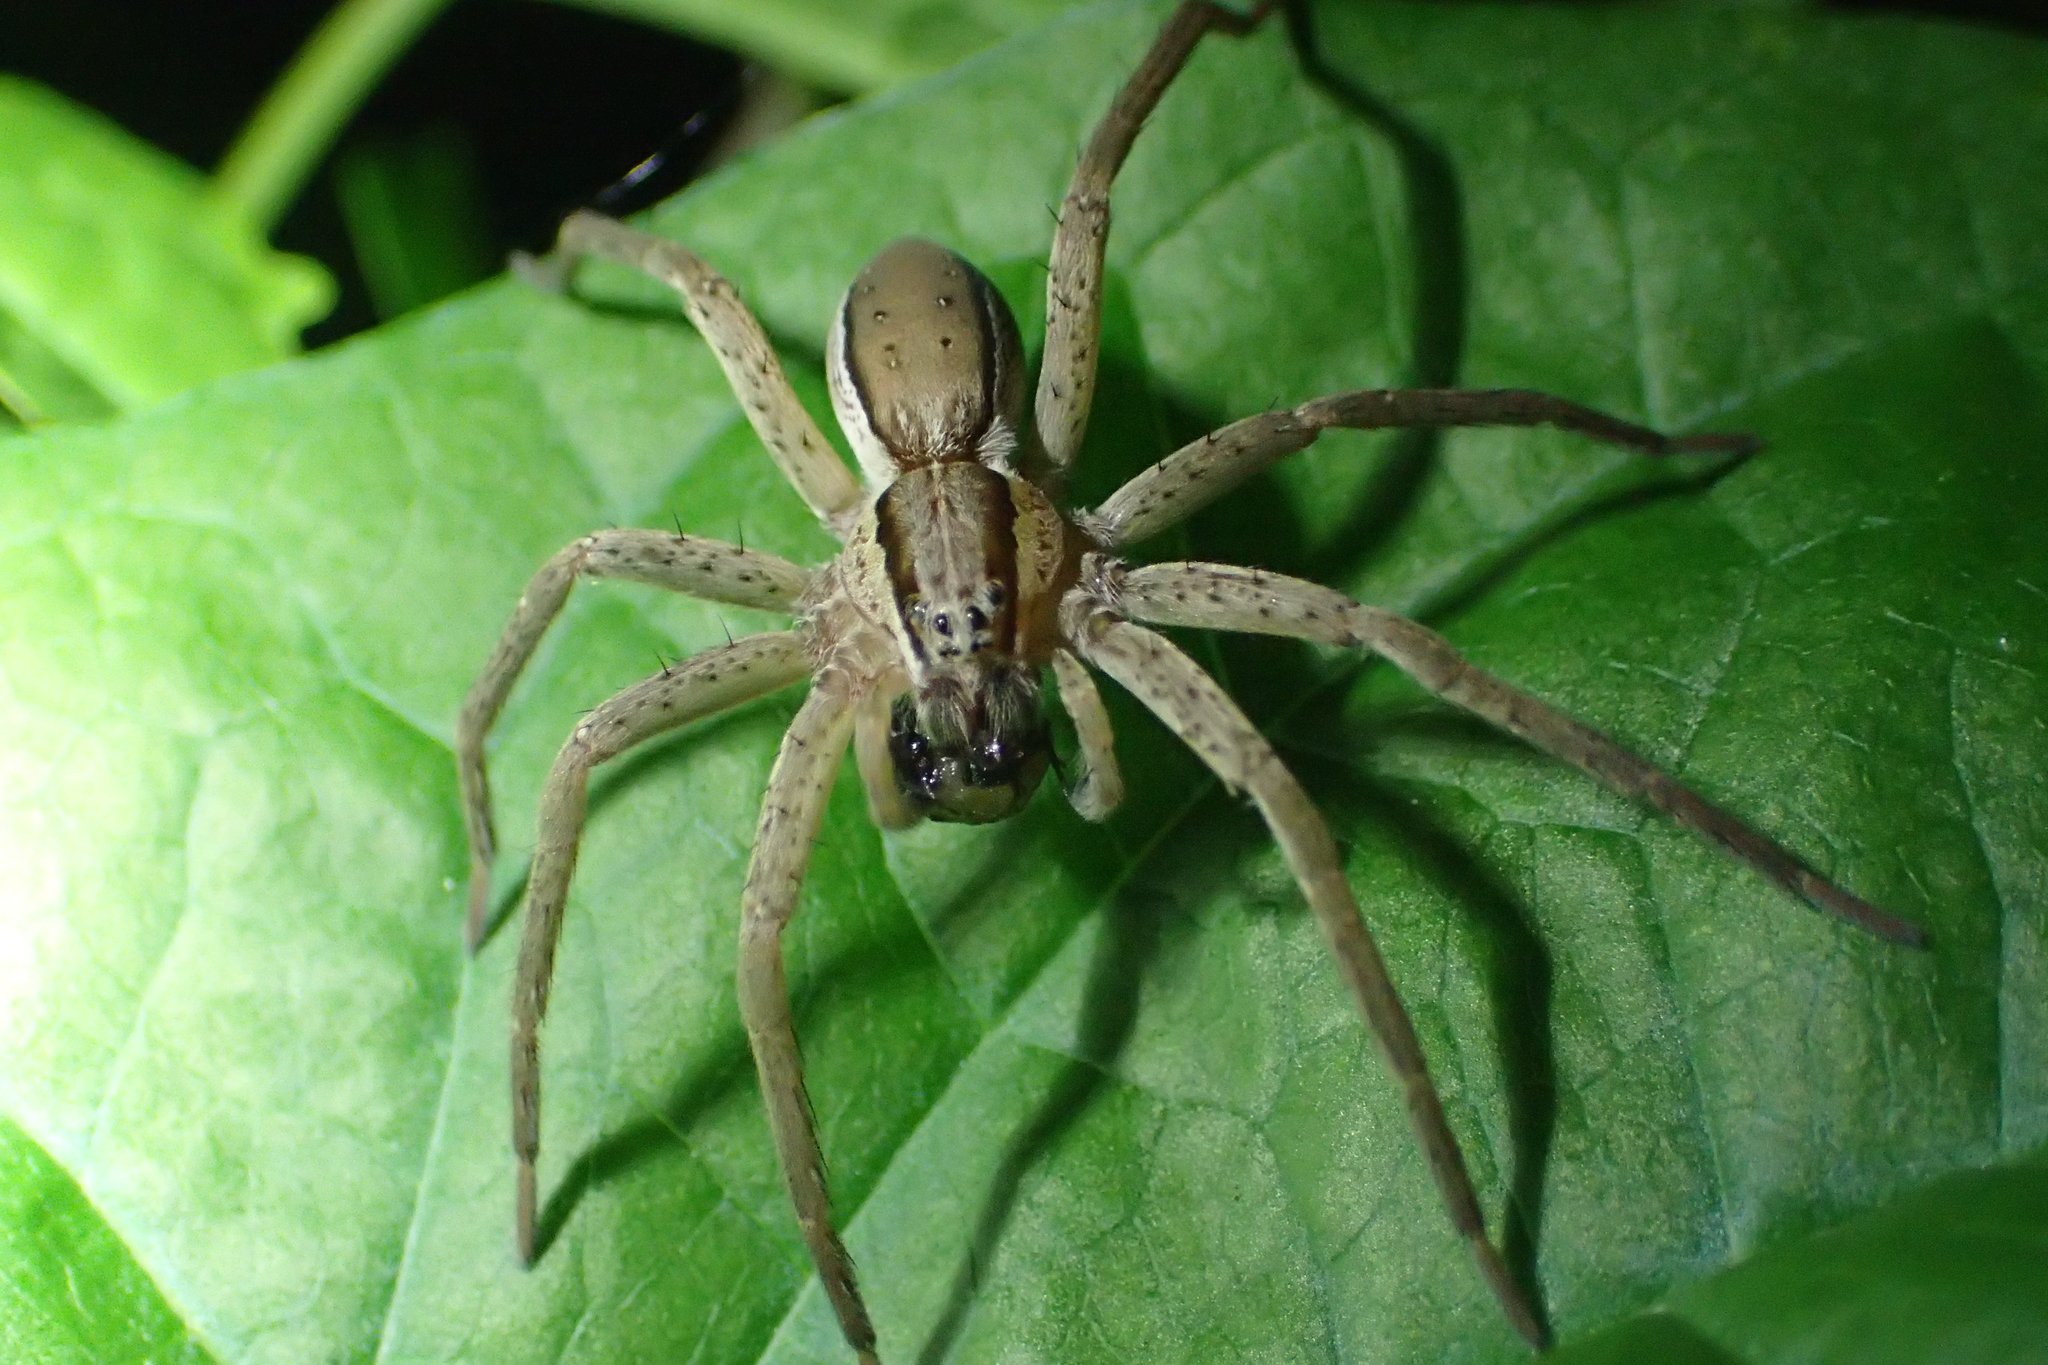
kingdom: Animalia
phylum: Arthropoda
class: Arachnida
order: Araneae
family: Pisauridae
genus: Dolomedes
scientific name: Dolomedes minor
